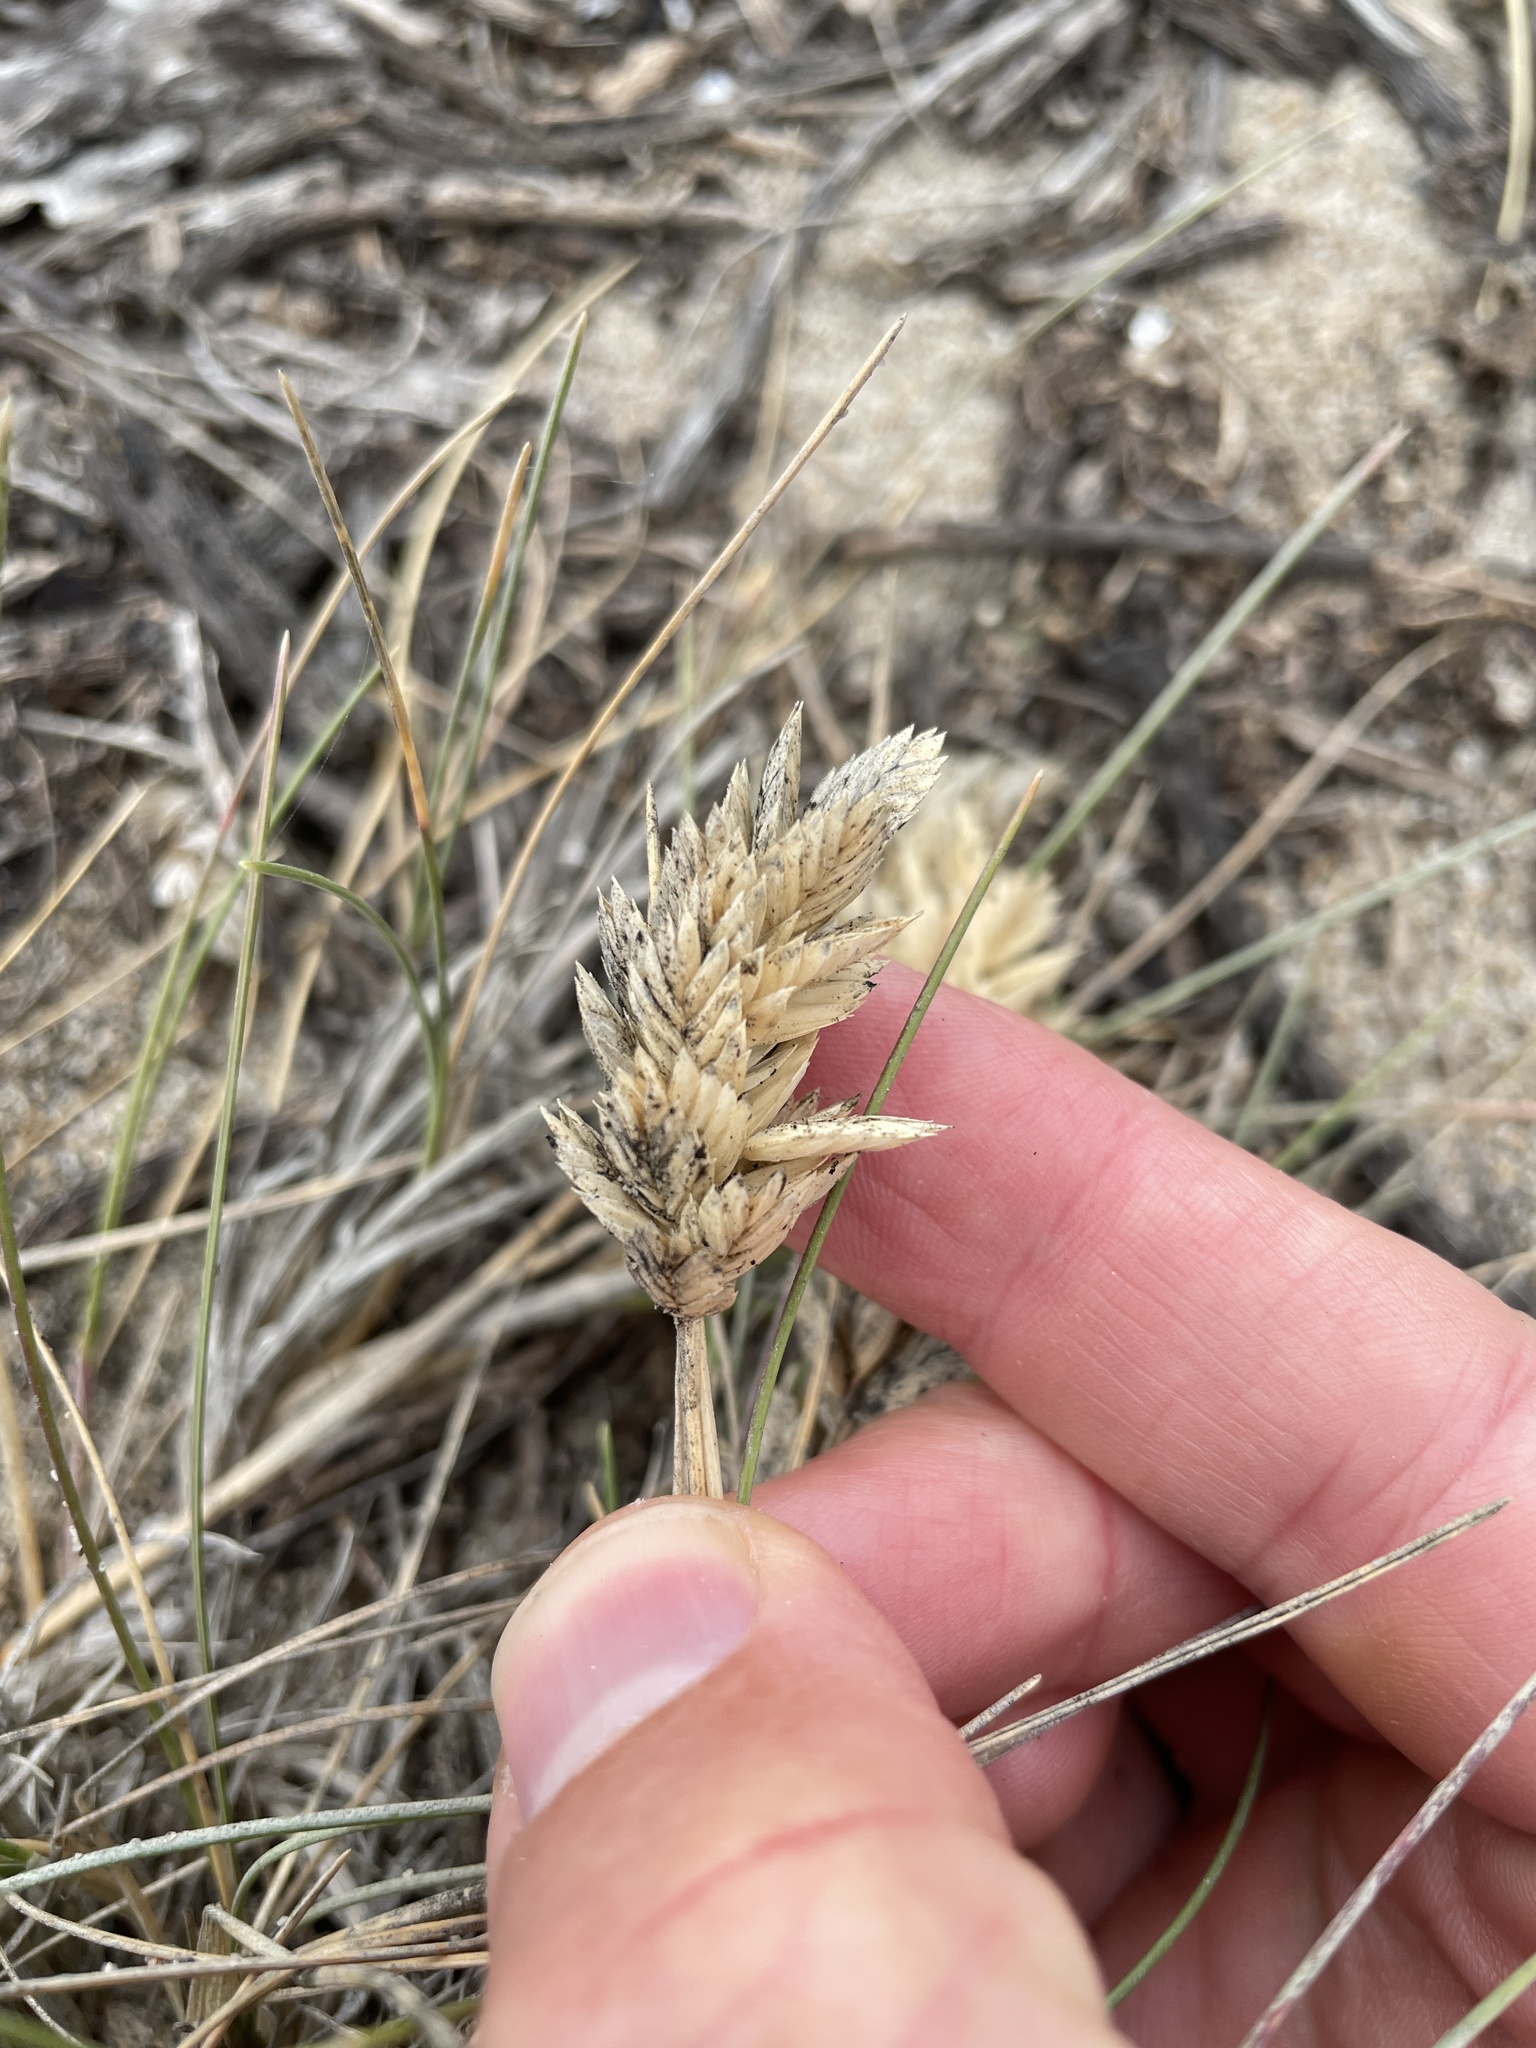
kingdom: Plantae
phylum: Tracheophyta
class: Liliopsida
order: Poales
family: Poaceae
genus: Poa
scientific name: Poa douglasii
